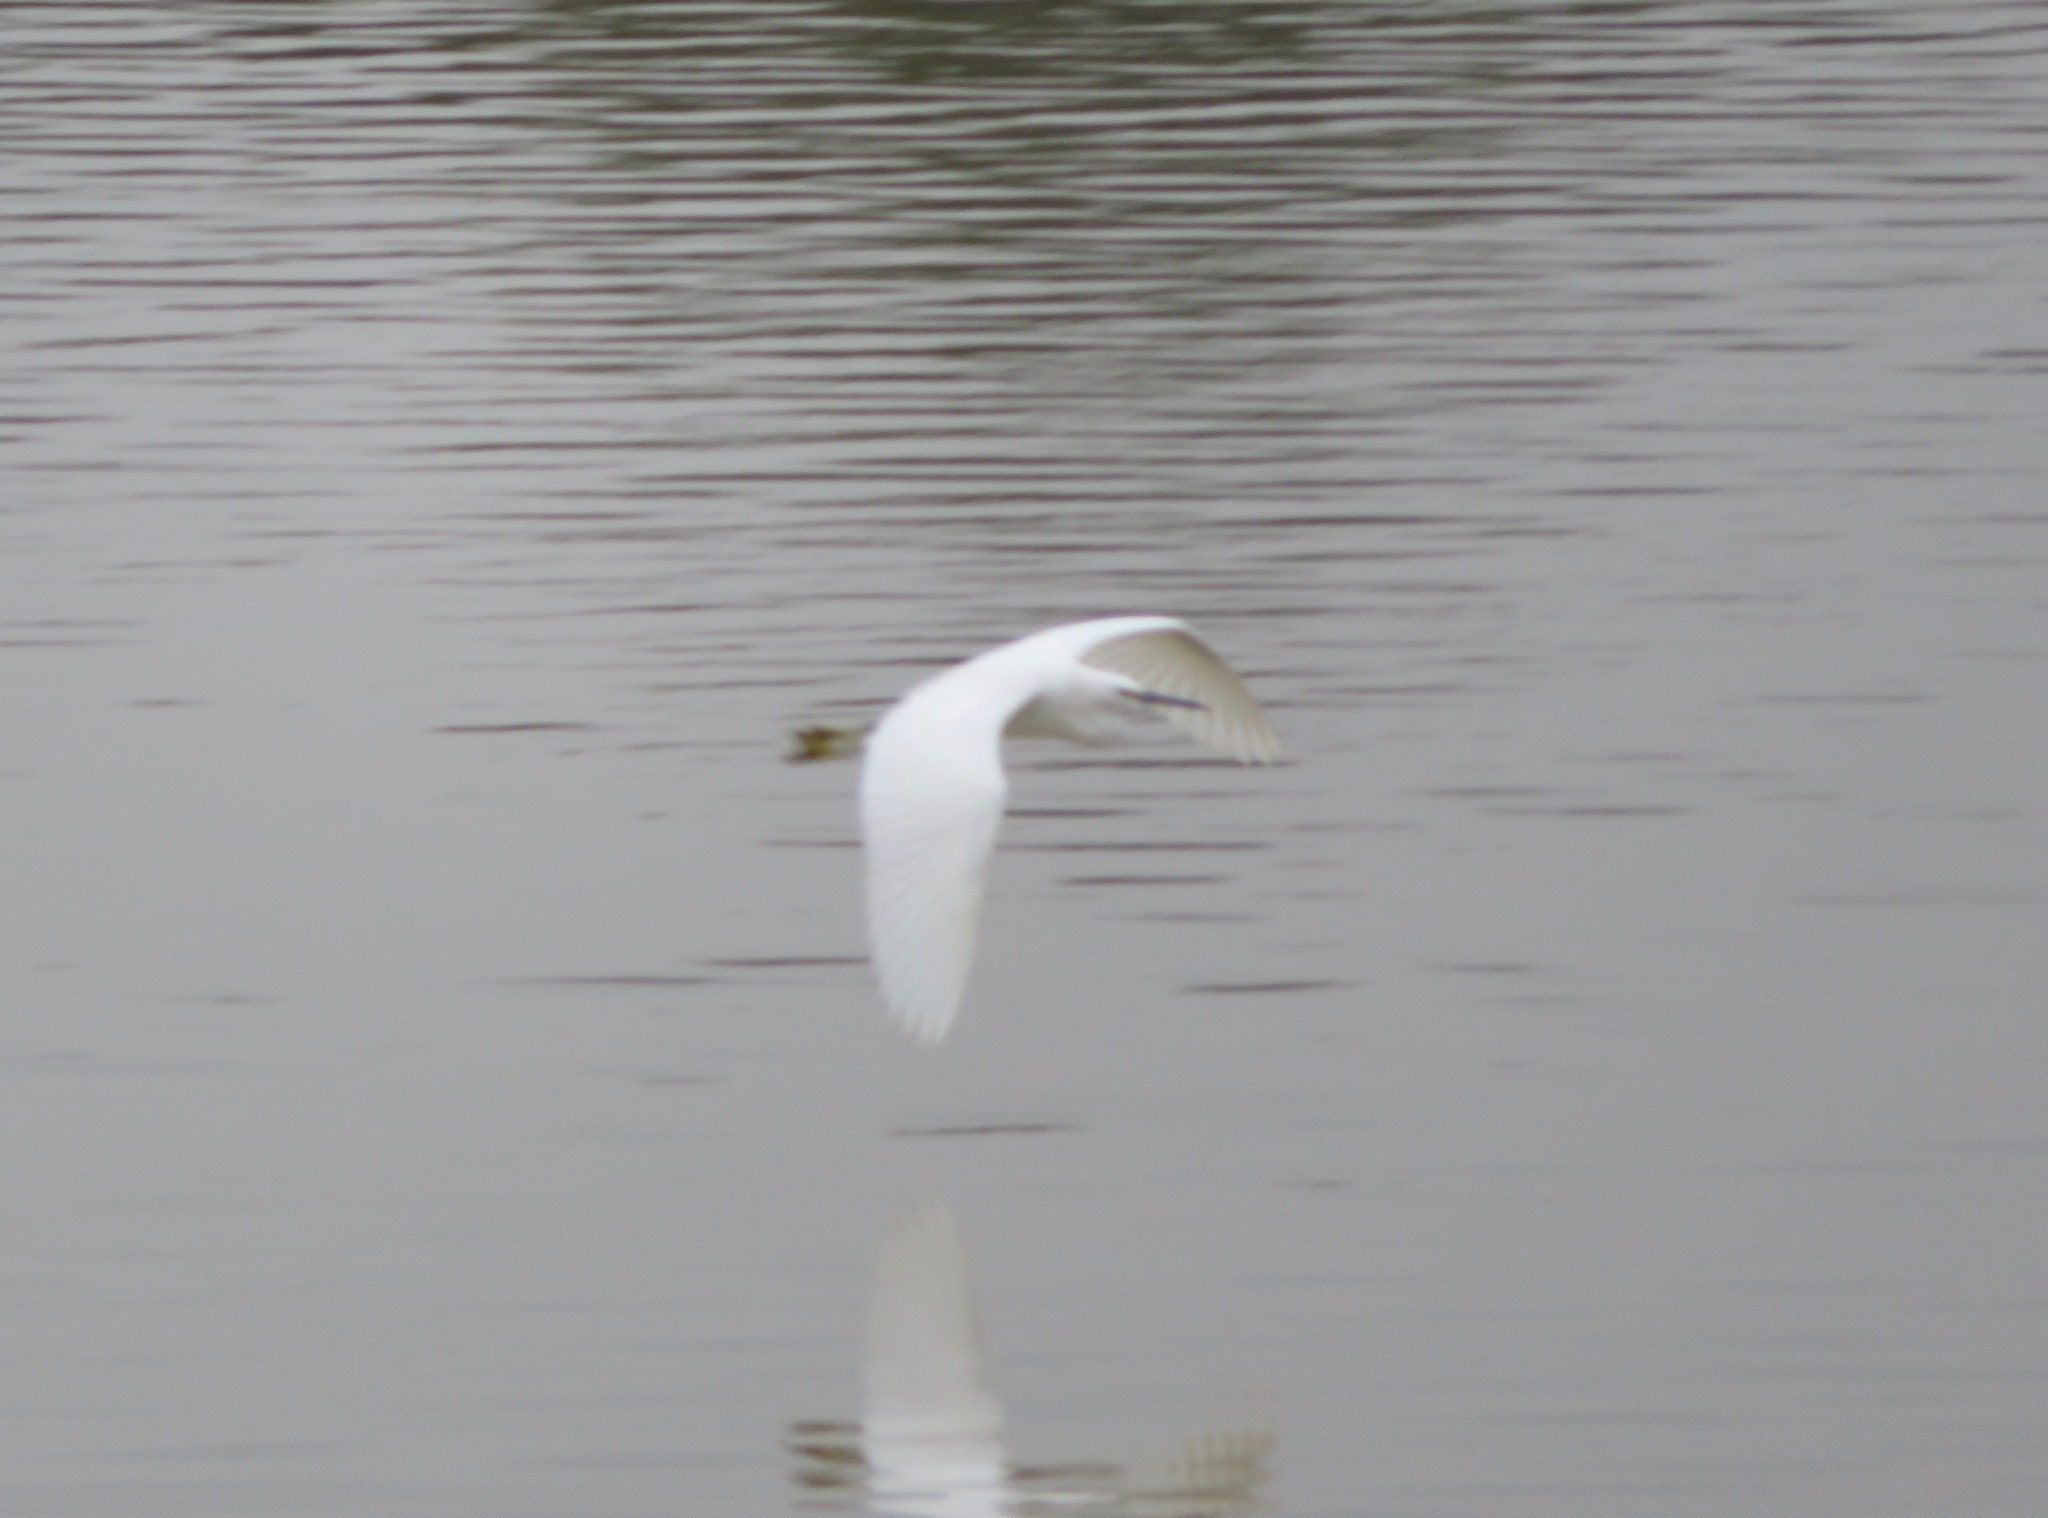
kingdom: Animalia
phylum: Chordata
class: Aves
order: Pelecaniformes
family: Ardeidae
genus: Egretta
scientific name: Egretta garzetta
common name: Little egret
